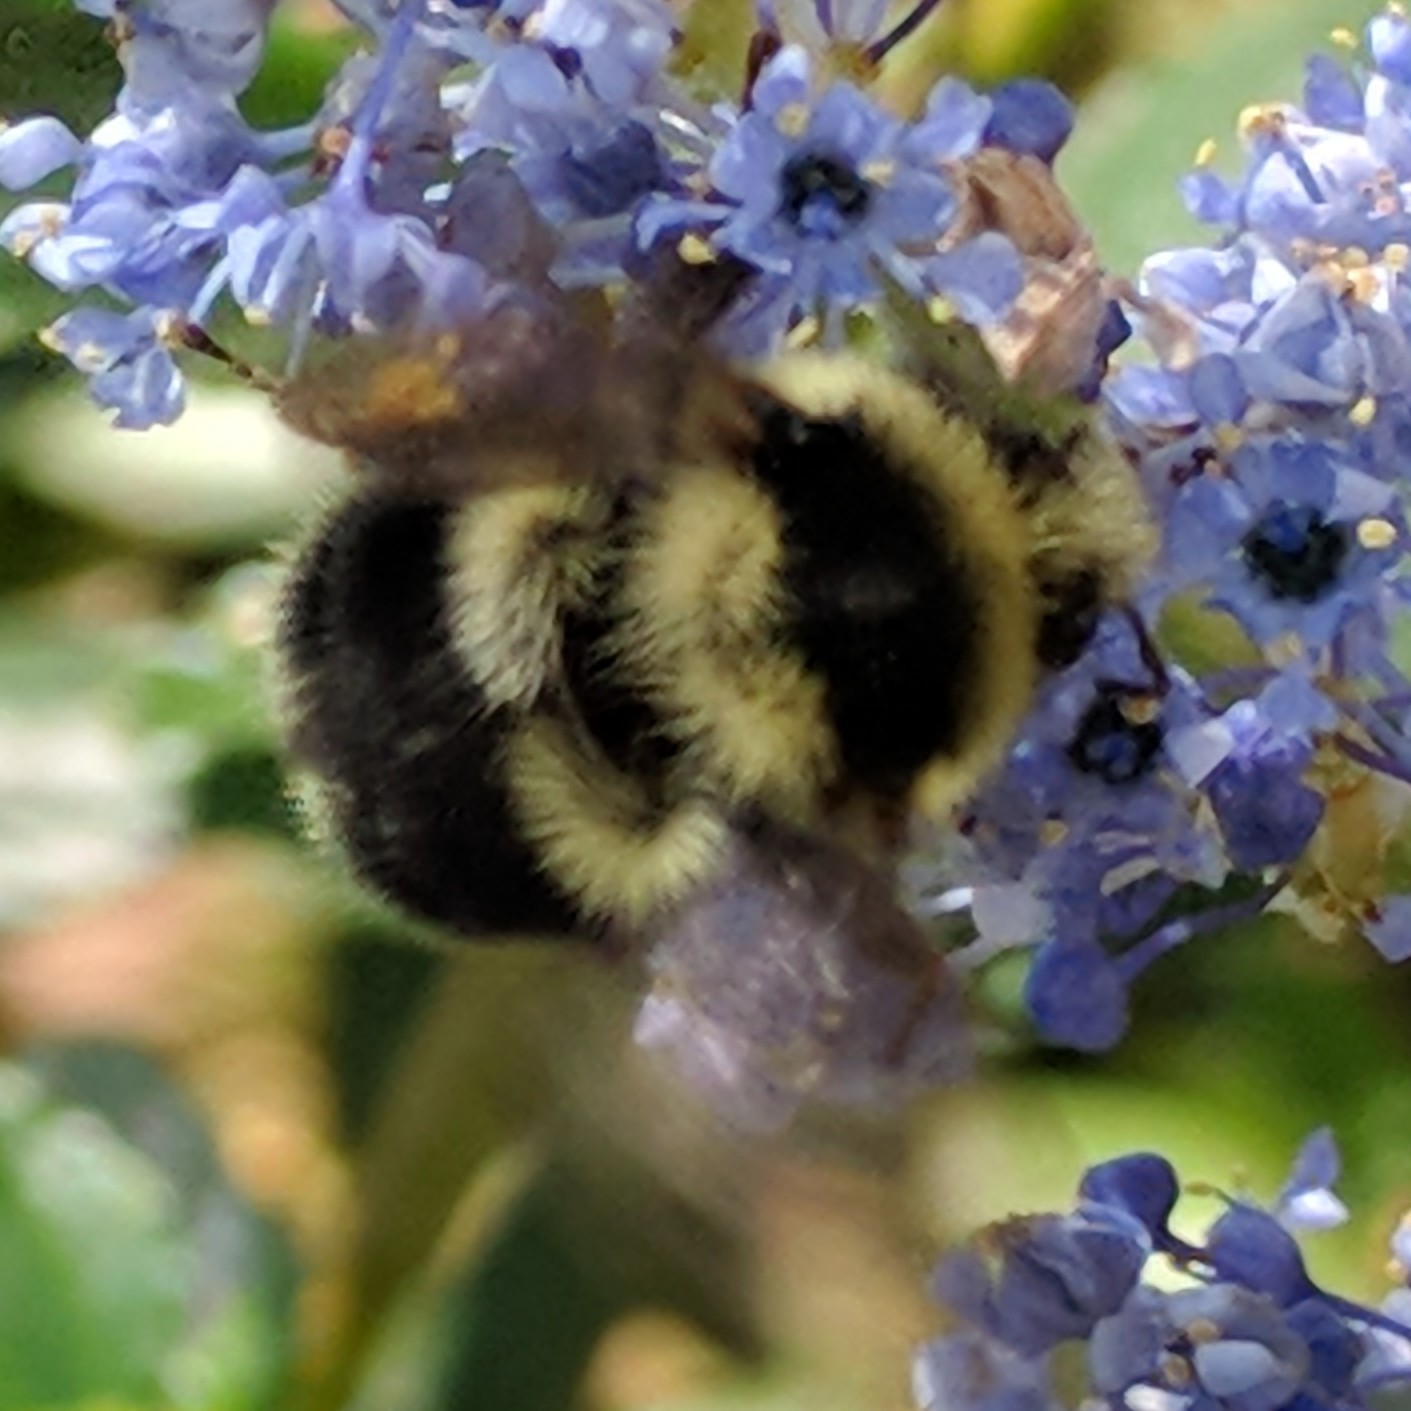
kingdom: Animalia
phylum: Arthropoda
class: Insecta
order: Hymenoptera
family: Apidae
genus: Bombus
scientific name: Bombus melanopygus
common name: Black tail bumble bee
